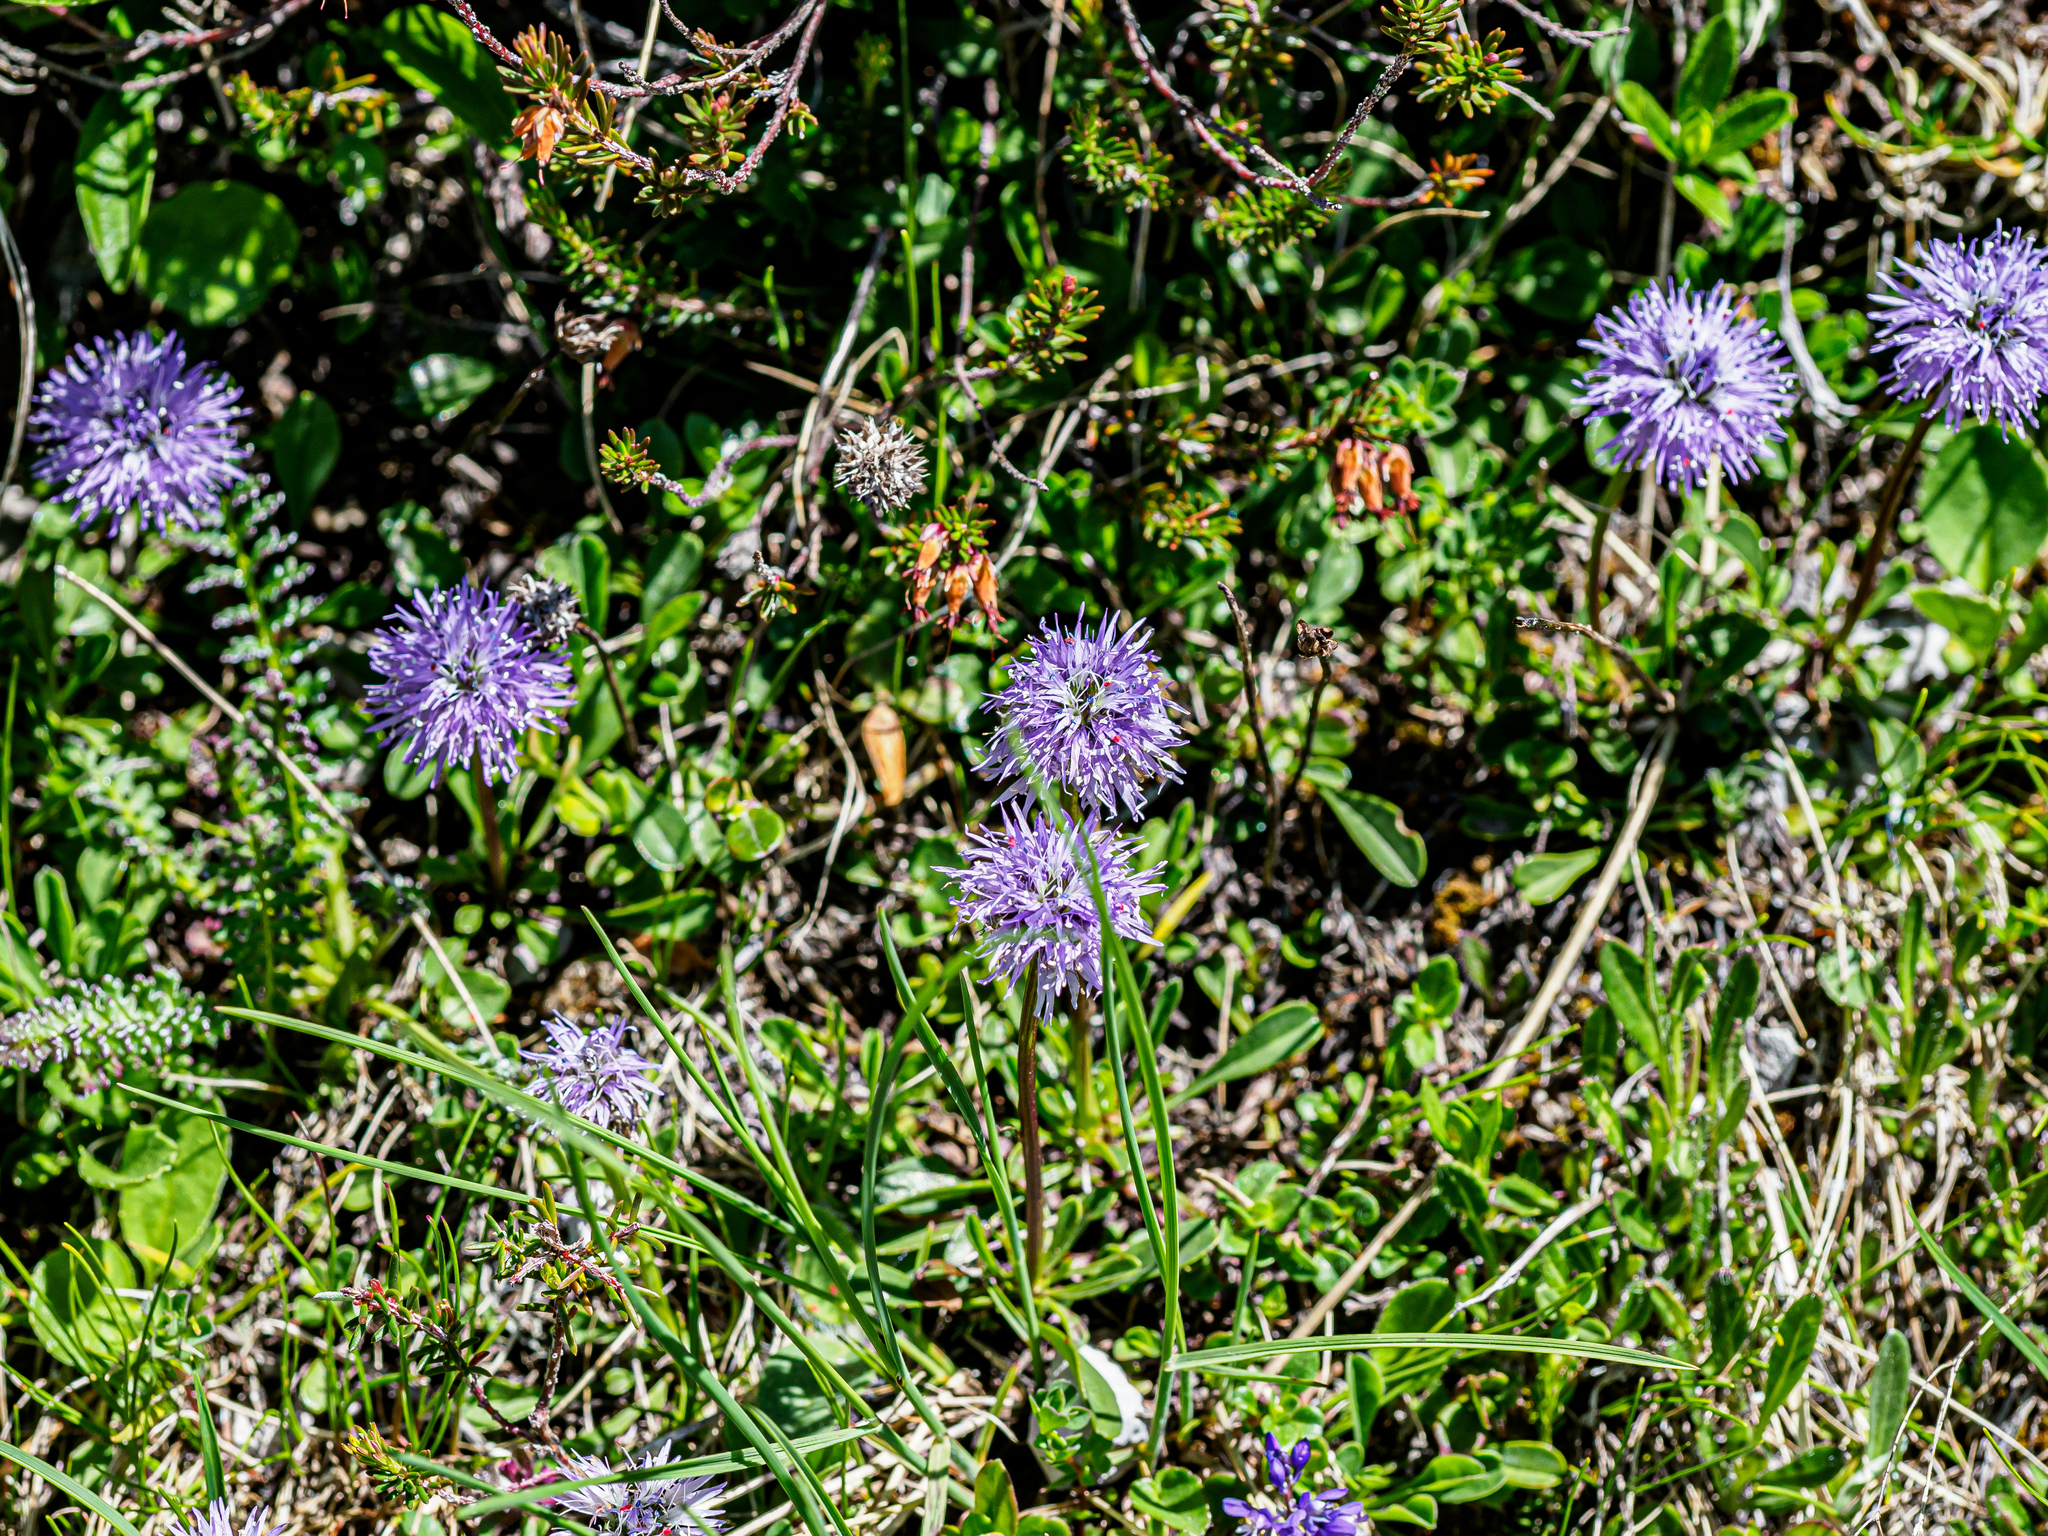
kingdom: Plantae
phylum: Tracheophyta
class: Magnoliopsida
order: Lamiales
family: Plantaginaceae
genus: Globularia
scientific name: Globularia cordifolia
